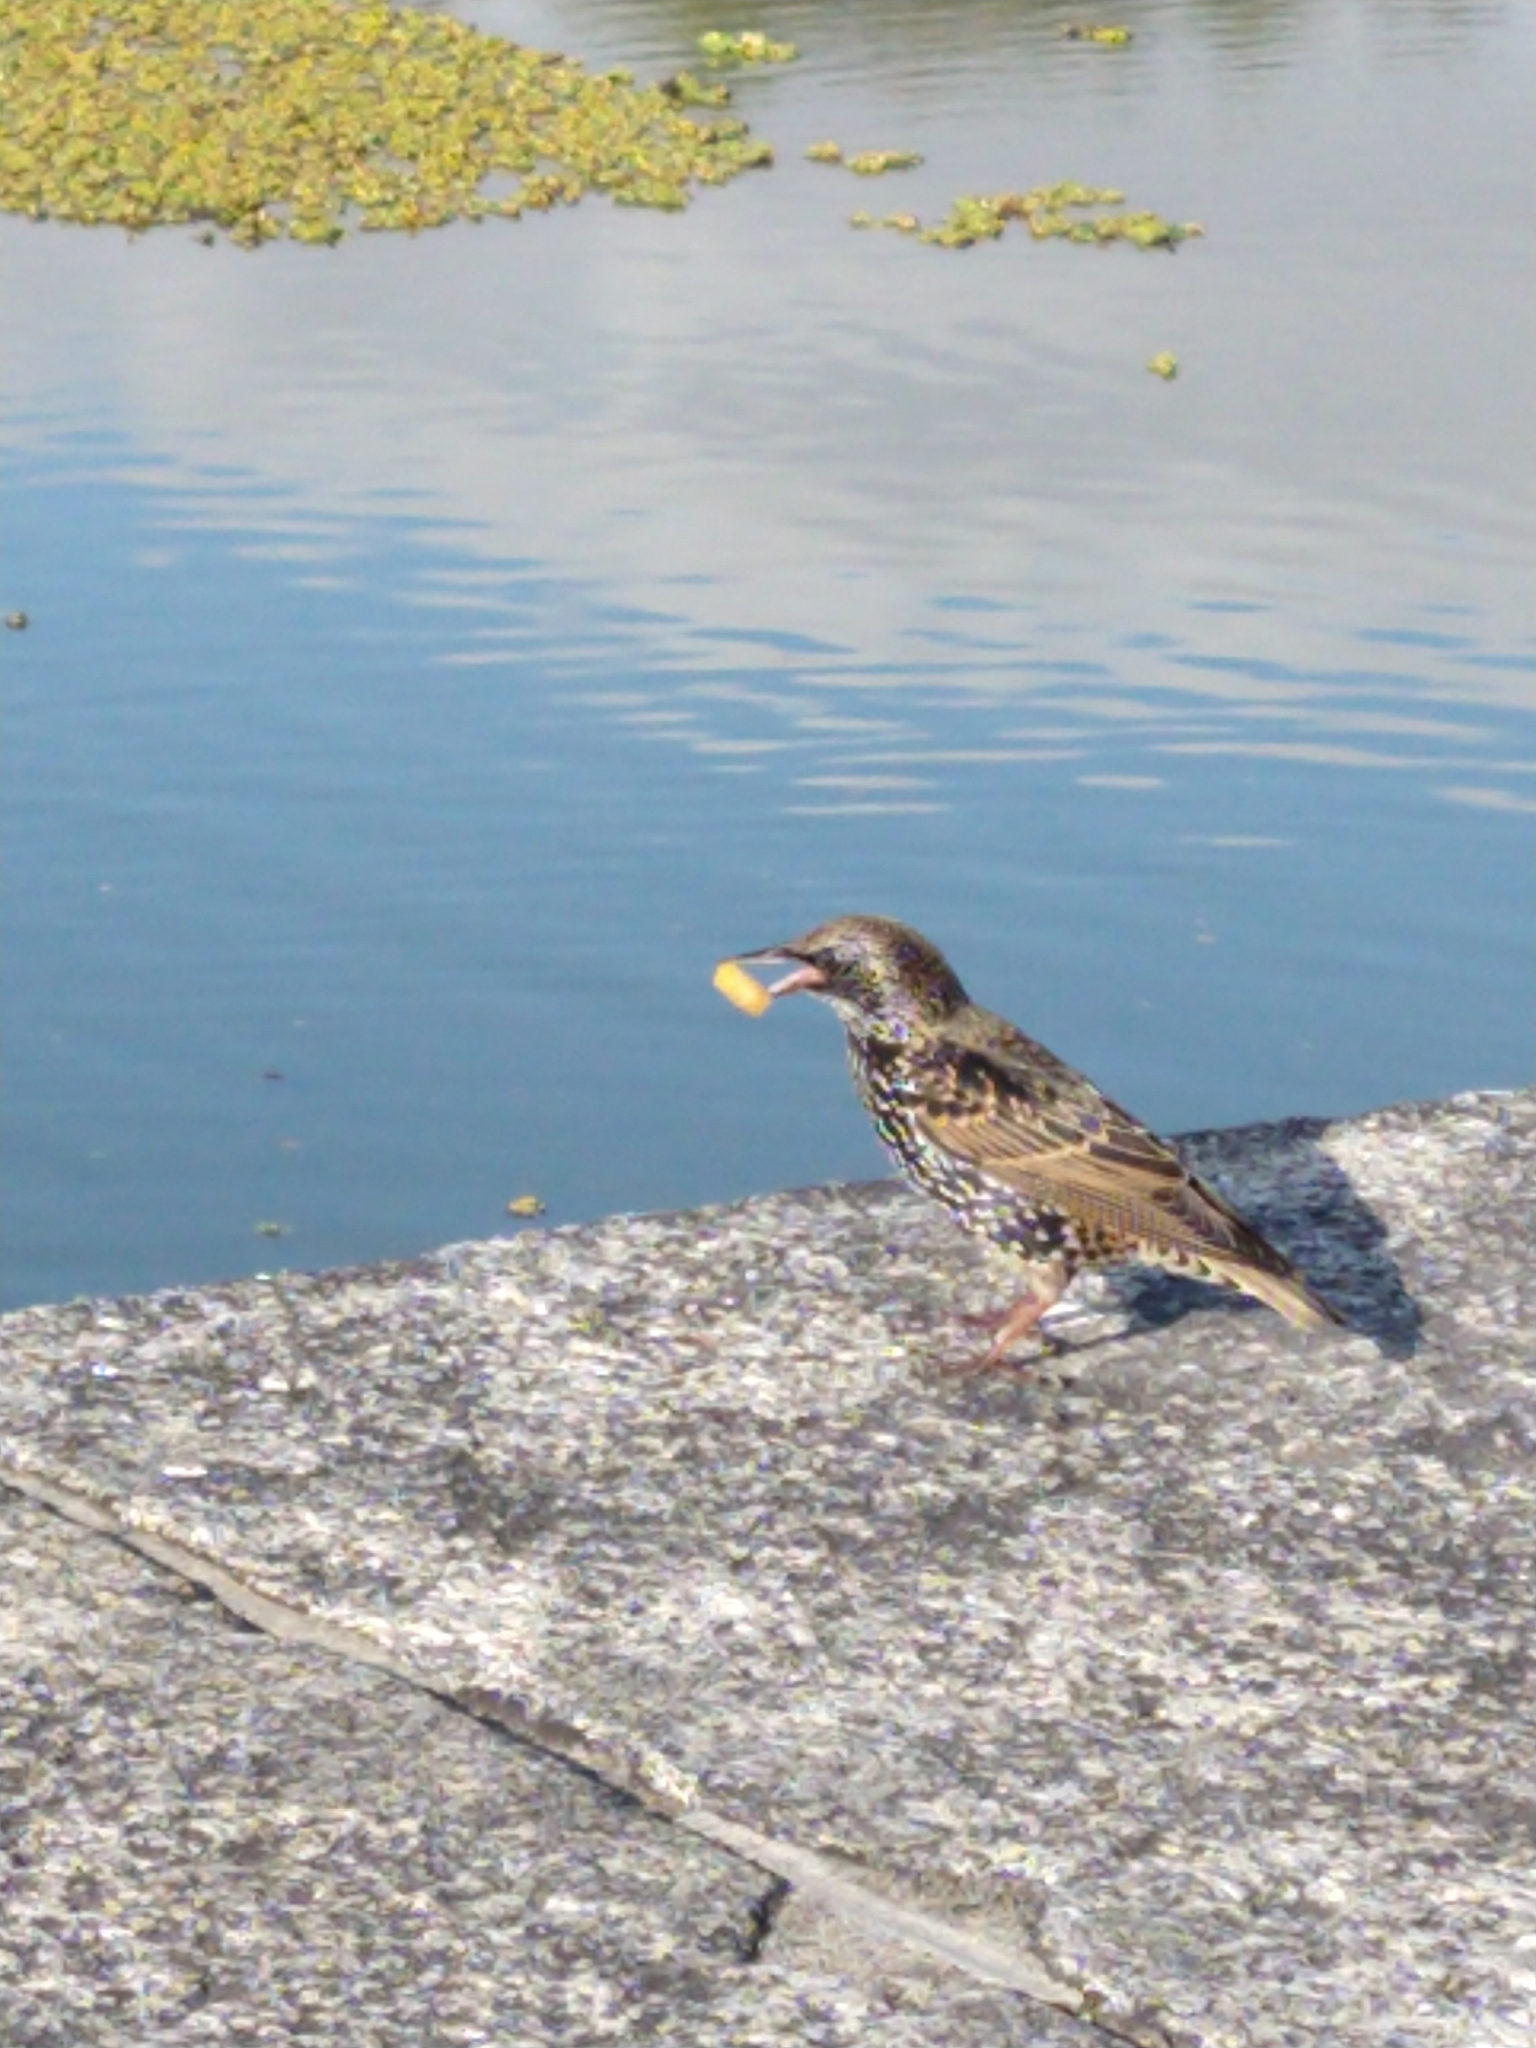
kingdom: Animalia
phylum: Chordata
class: Aves
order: Passeriformes
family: Sturnidae
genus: Sturnus
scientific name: Sturnus vulgaris
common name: Common starling
